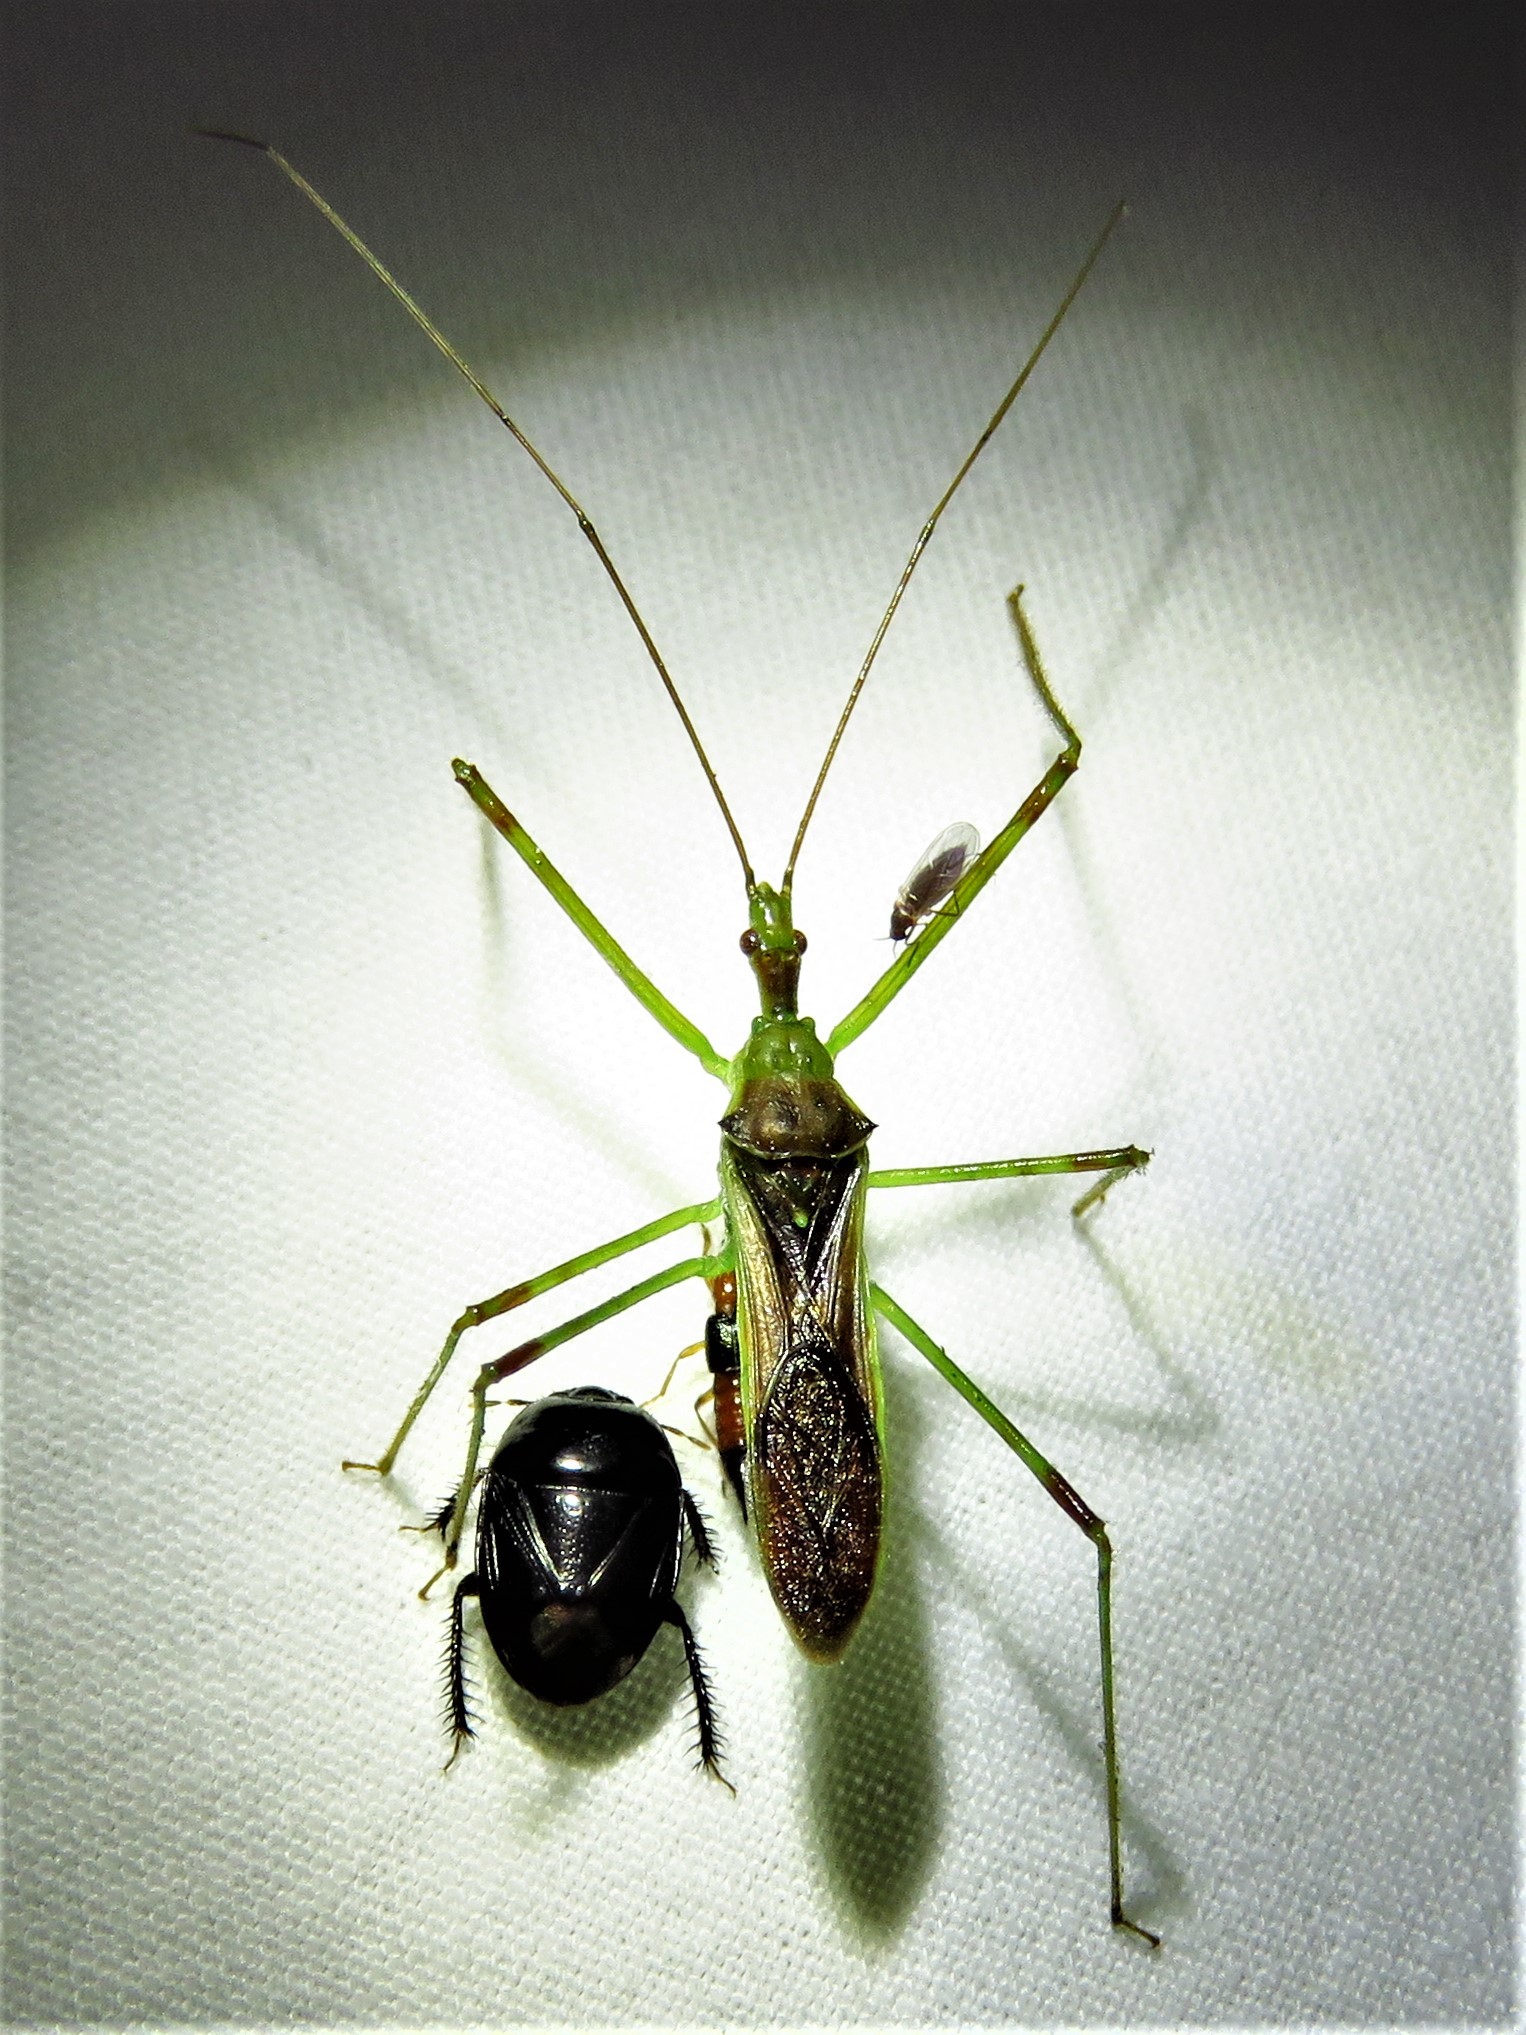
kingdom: Animalia
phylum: Arthropoda
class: Insecta
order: Hemiptera
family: Reduviidae
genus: Zelus
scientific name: Zelus luridus
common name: Pale green assassin bug
